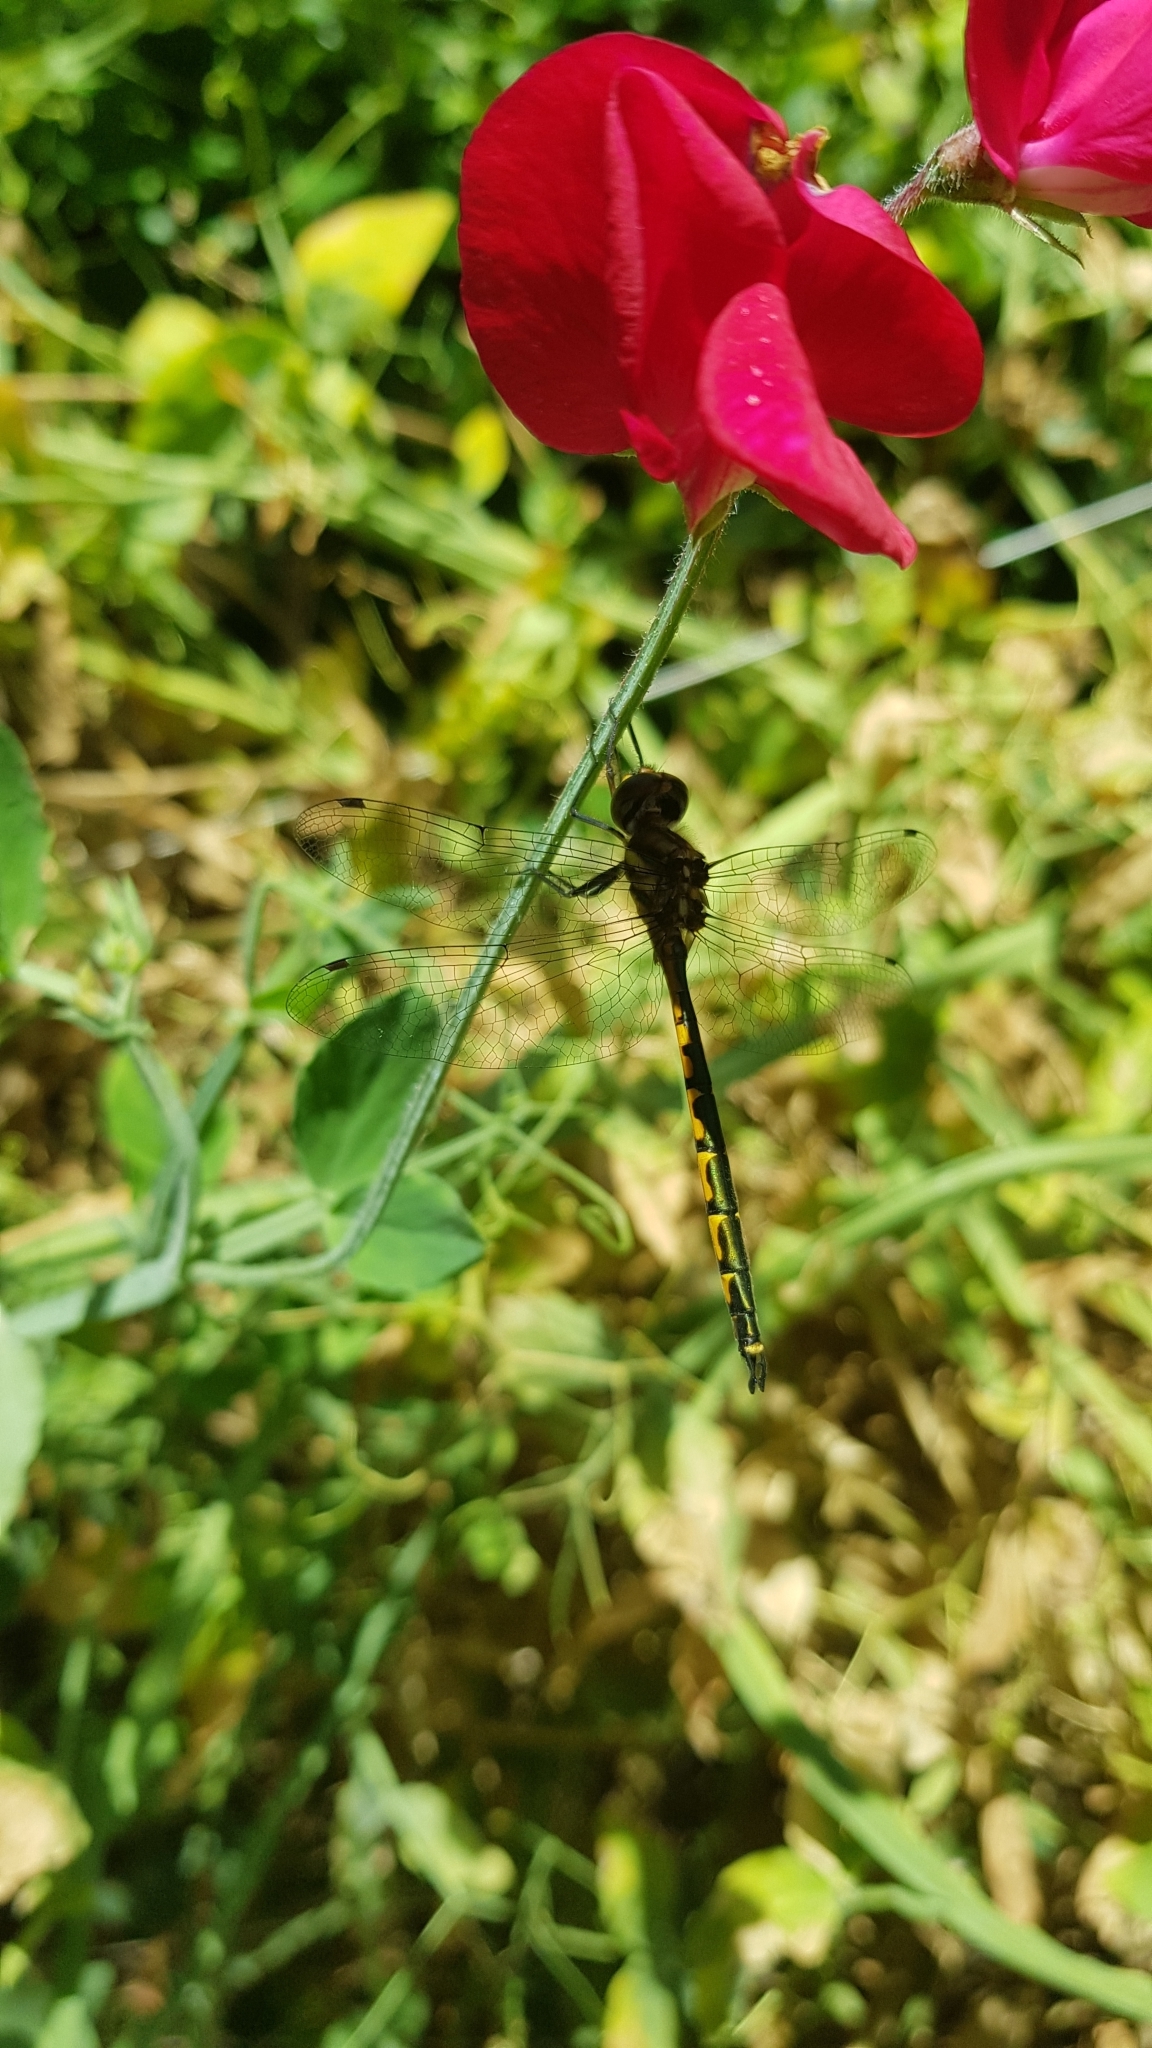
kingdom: Animalia
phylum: Arthropoda
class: Insecta
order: Odonata
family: Corduliidae
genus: Hemicordulia
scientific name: Hemicordulia australiae
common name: Sentry dragonfly
